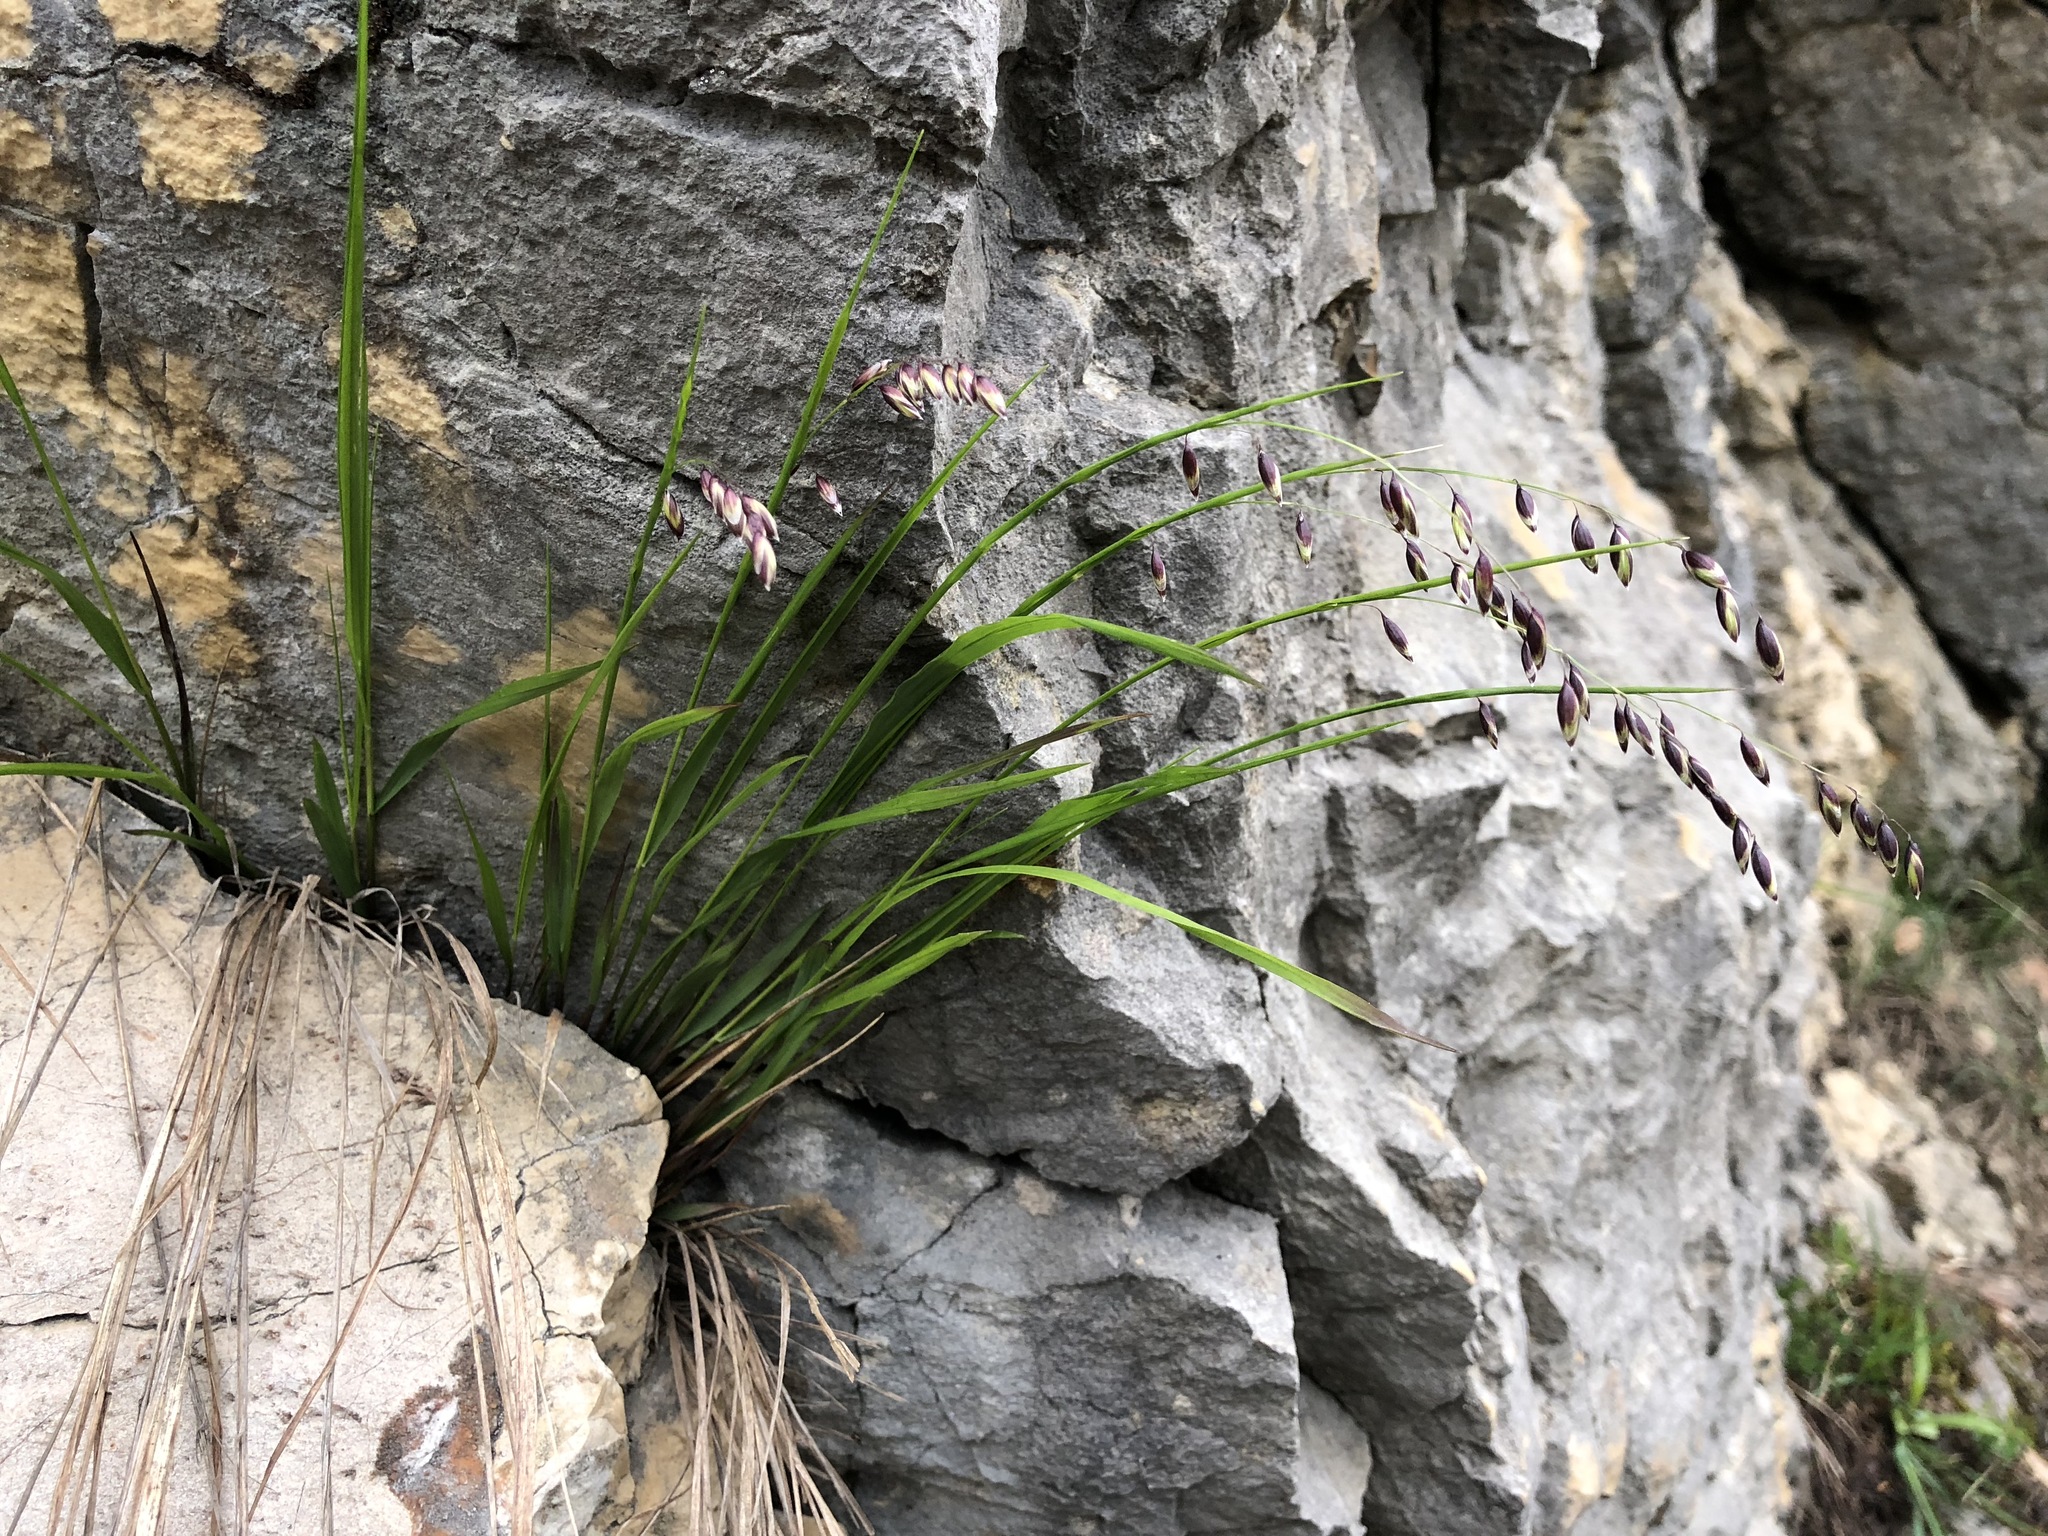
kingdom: Plantae
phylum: Tracheophyta
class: Liliopsida
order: Poales
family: Poaceae
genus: Melica
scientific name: Melica nutans
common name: Mountain melick
